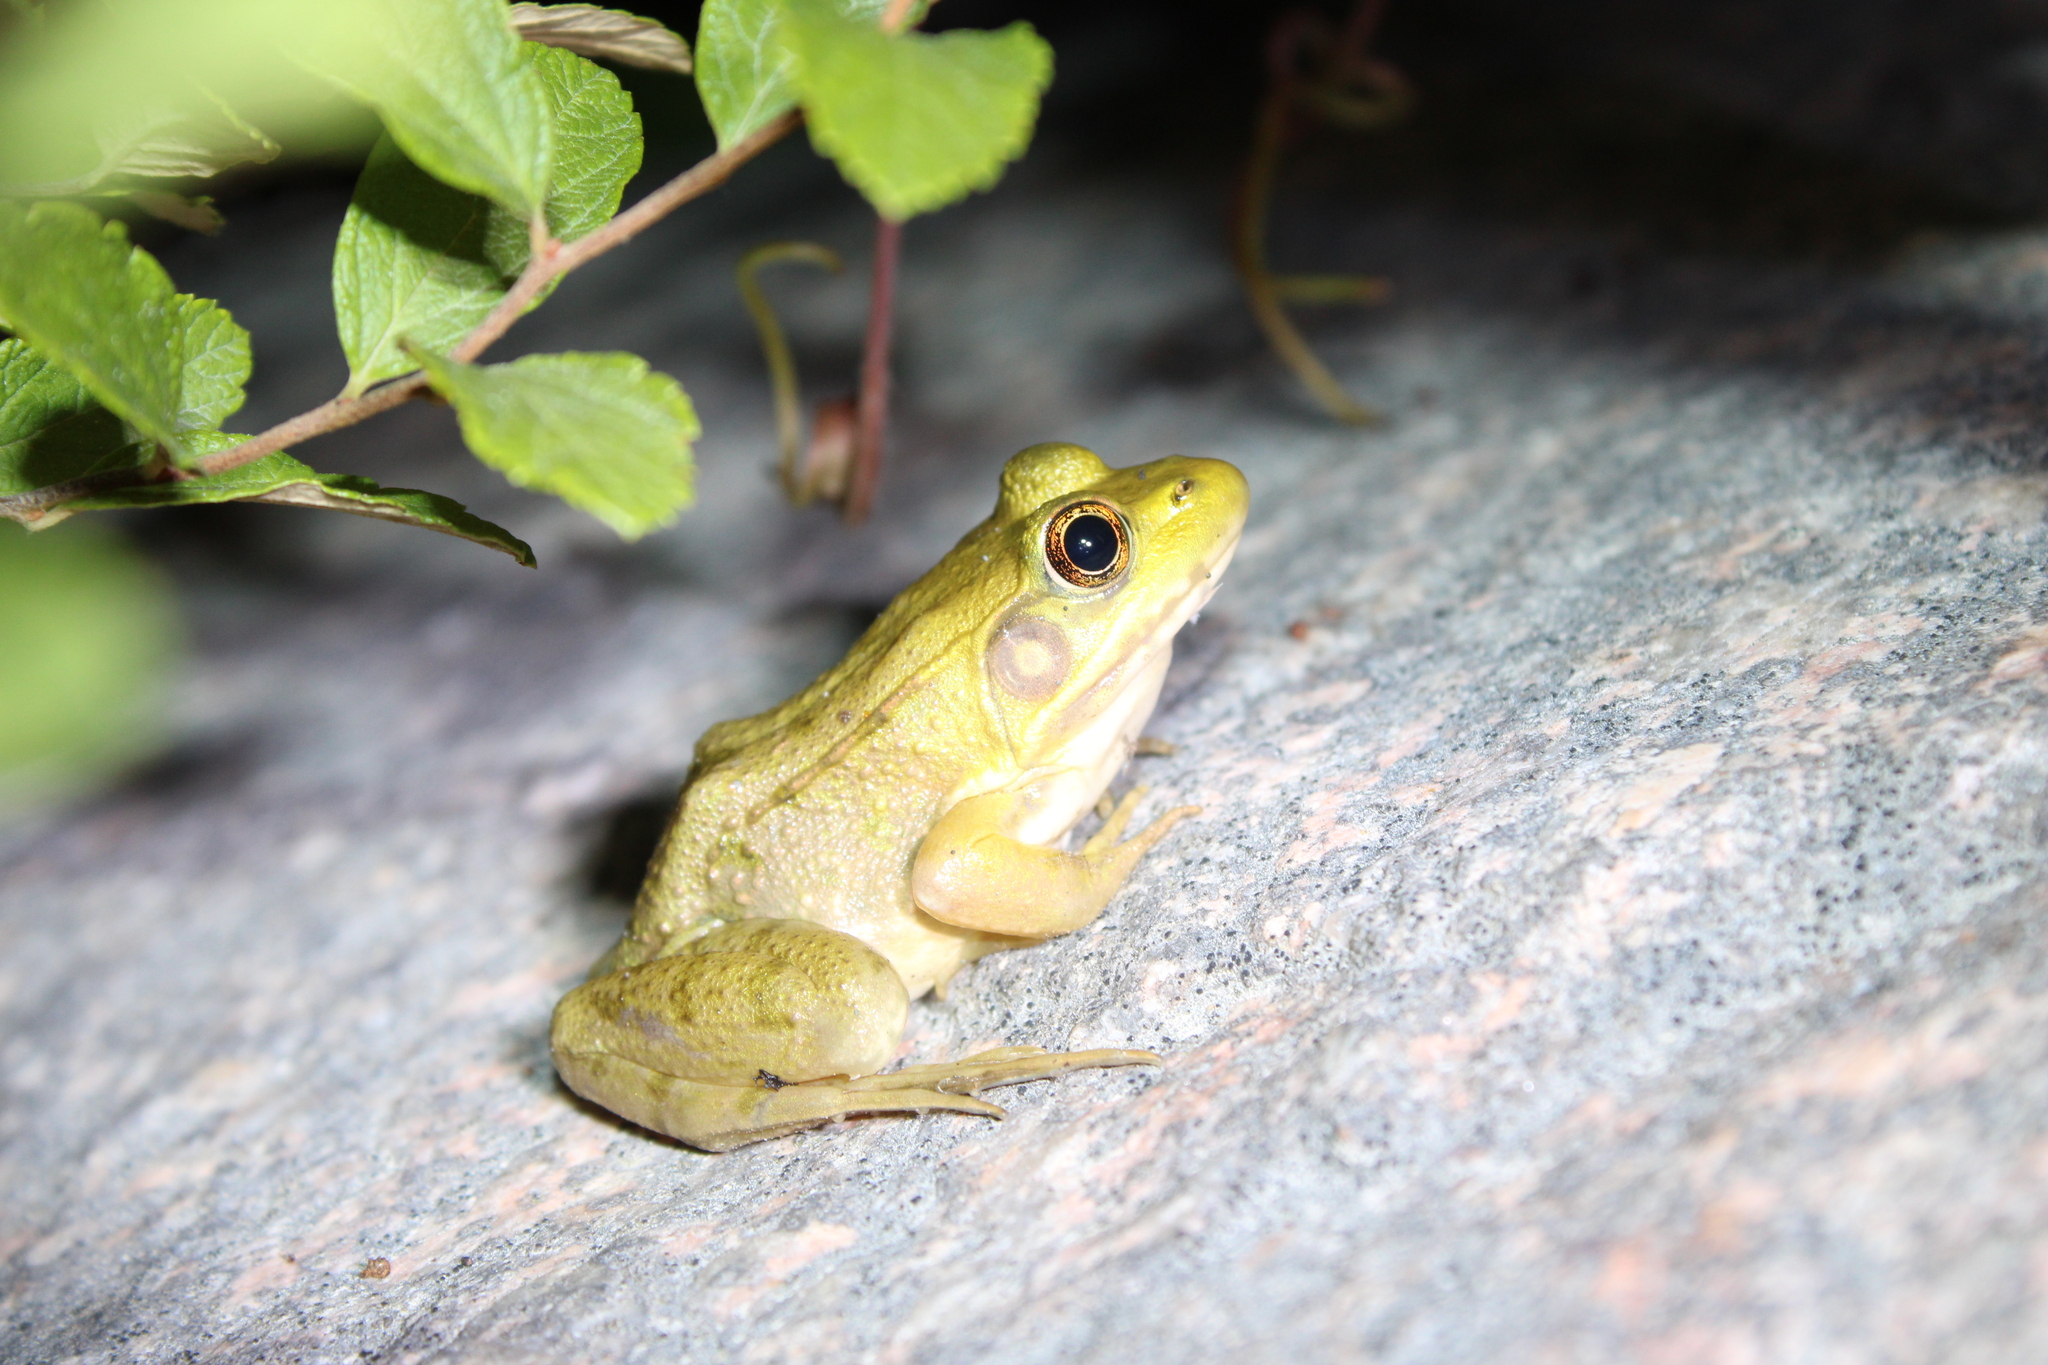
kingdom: Animalia
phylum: Chordata
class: Amphibia
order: Anura
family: Ranidae
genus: Lithobates
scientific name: Lithobates clamitans
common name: Green frog
